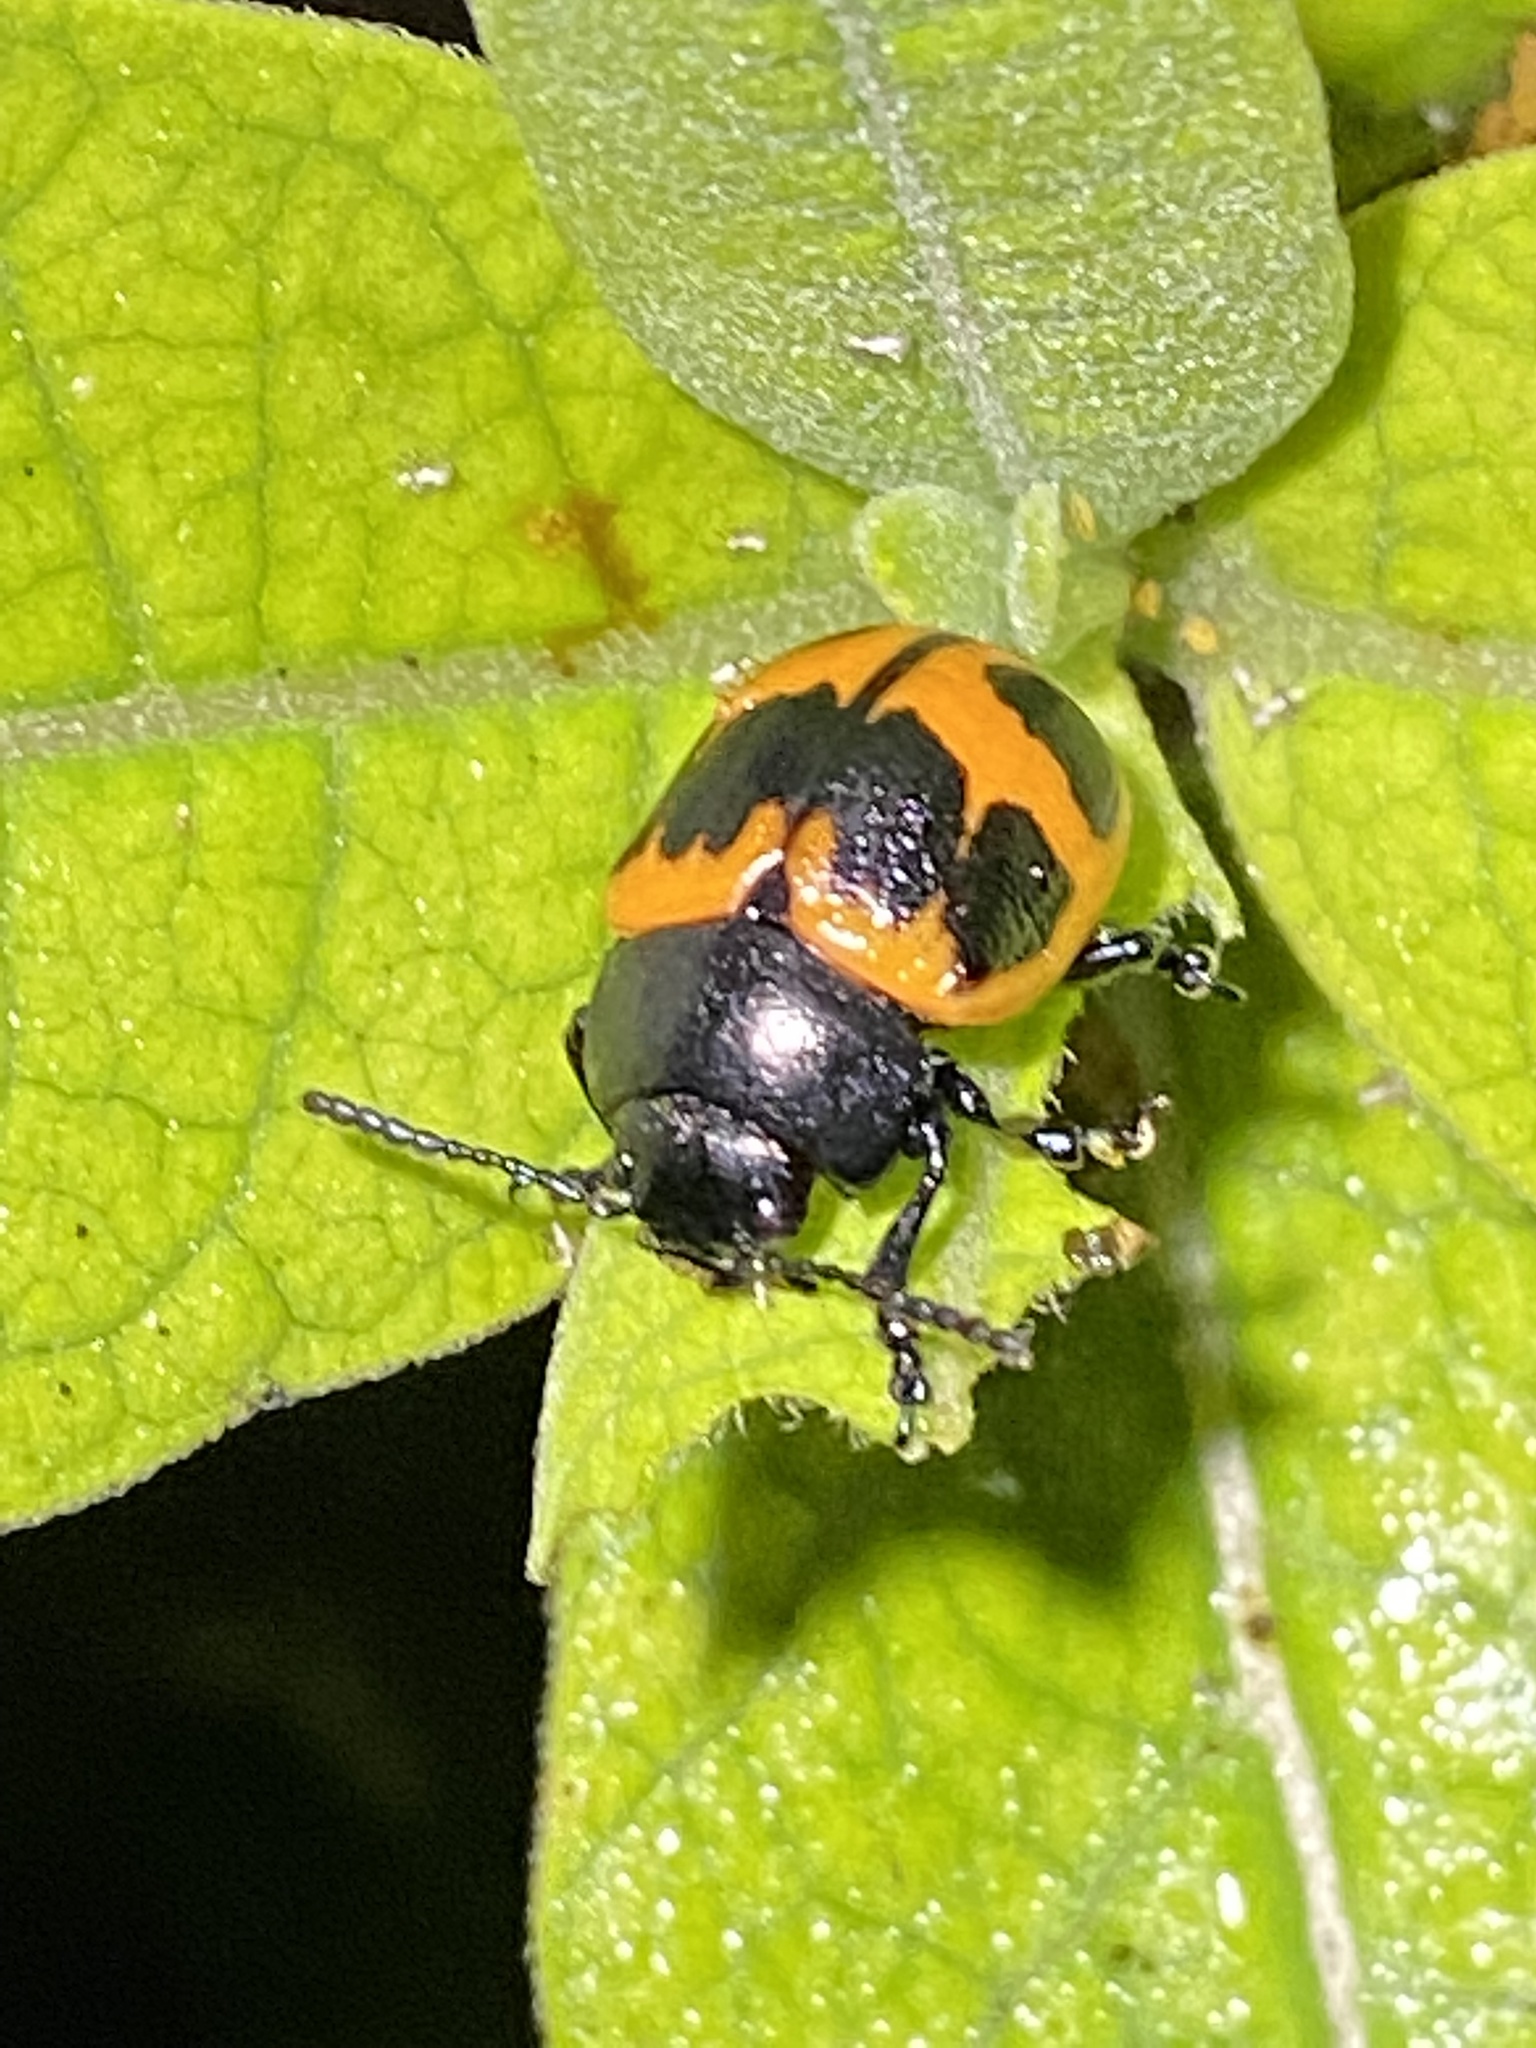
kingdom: Animalia
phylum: Arthropoda
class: Insecta
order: Coleoptera
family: Chrysomelidae
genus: Labidomera
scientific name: Labidomera clivicollis
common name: Swamp milkweed leaf beetle
